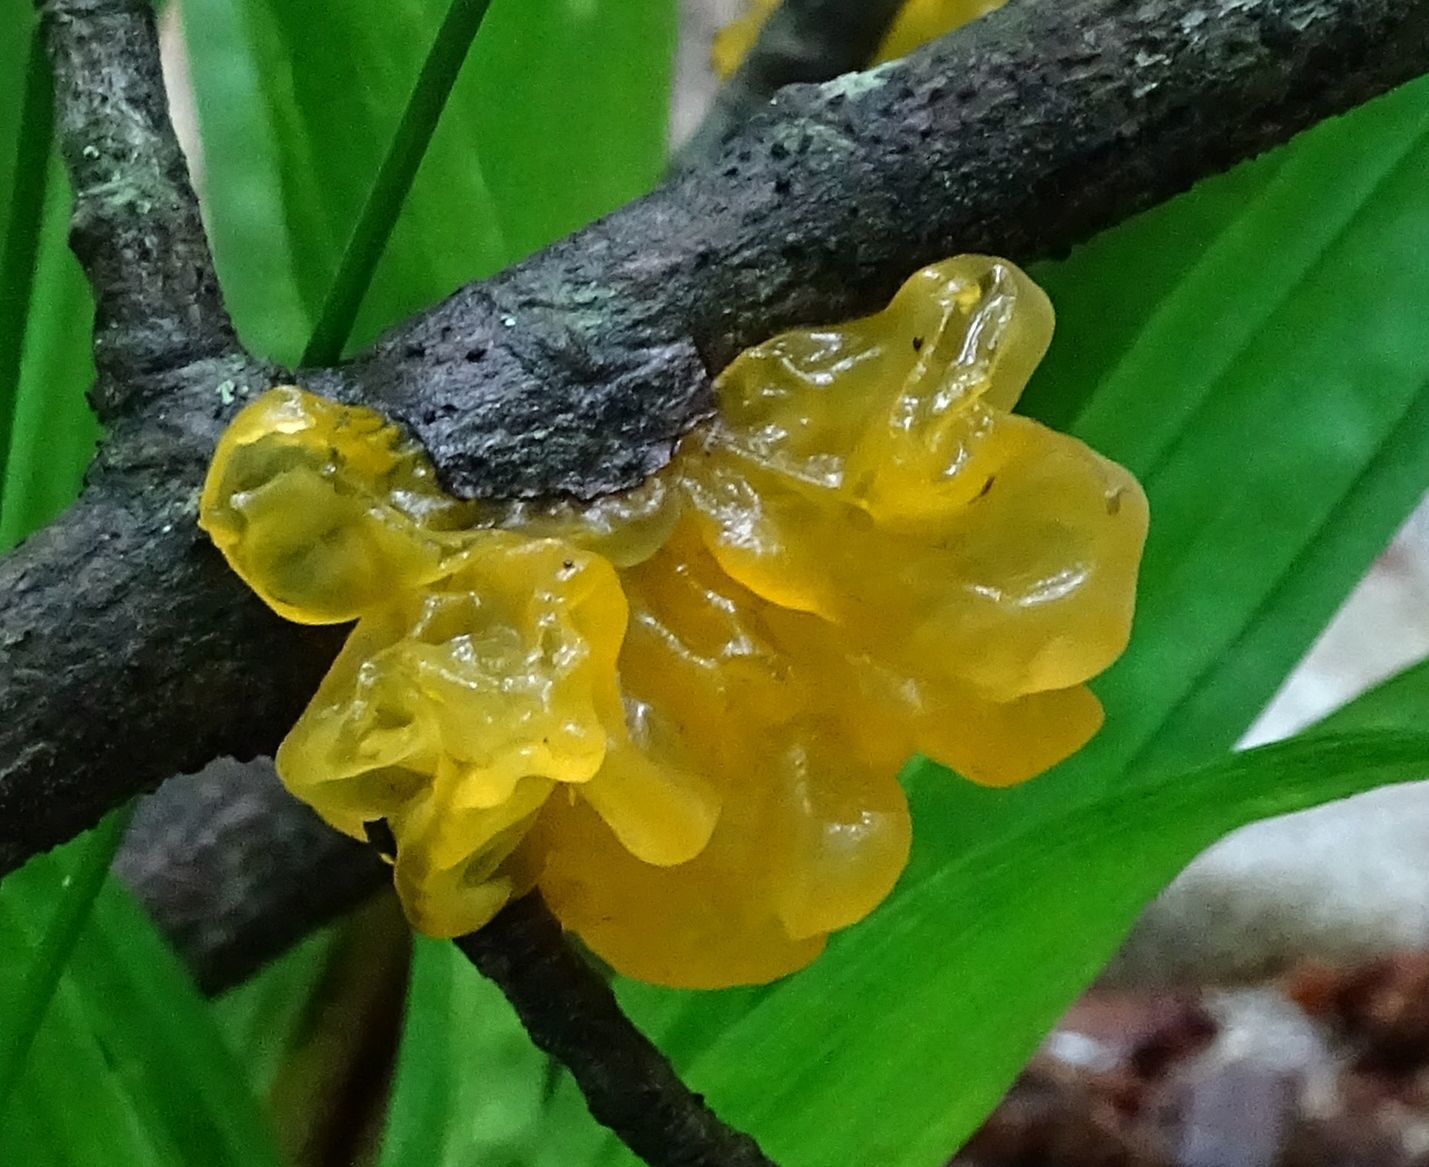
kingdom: Fungi
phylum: Basidiomycota
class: Tremellomycetes
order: Tremellales
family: Tremellaceae
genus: Tremella
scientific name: Tremella mesenterica
